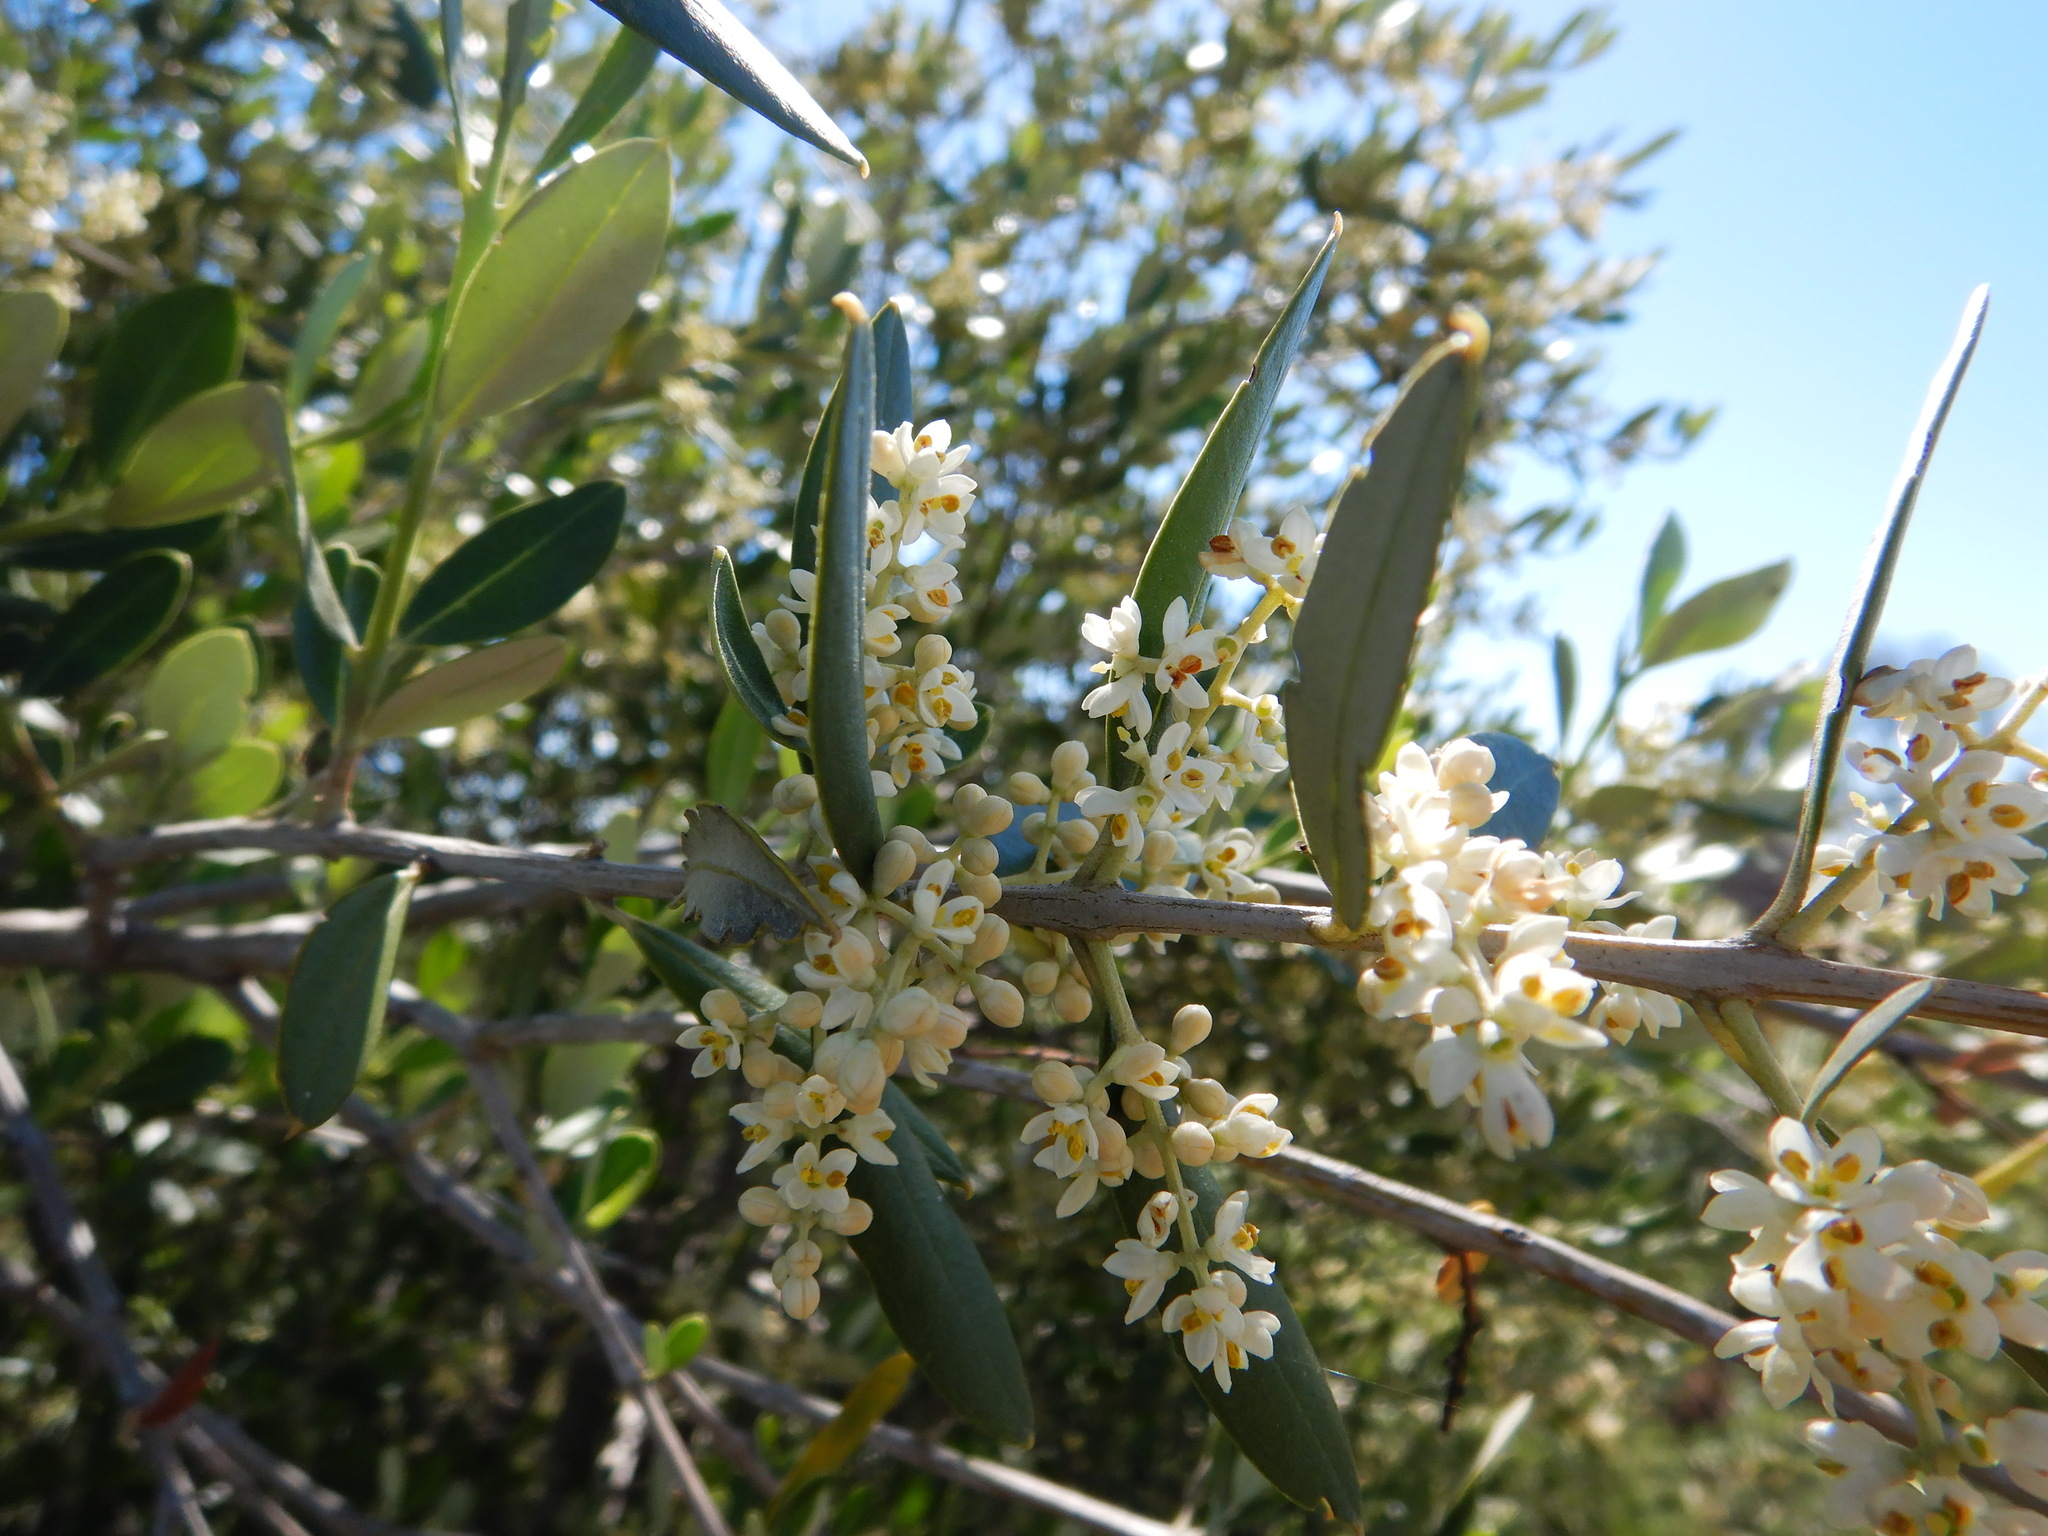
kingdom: Plantae
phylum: Tracheophyta
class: Magnoliopsida
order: Lamiales
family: Oleaceae
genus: Olea
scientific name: Olea europaea
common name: Olive
